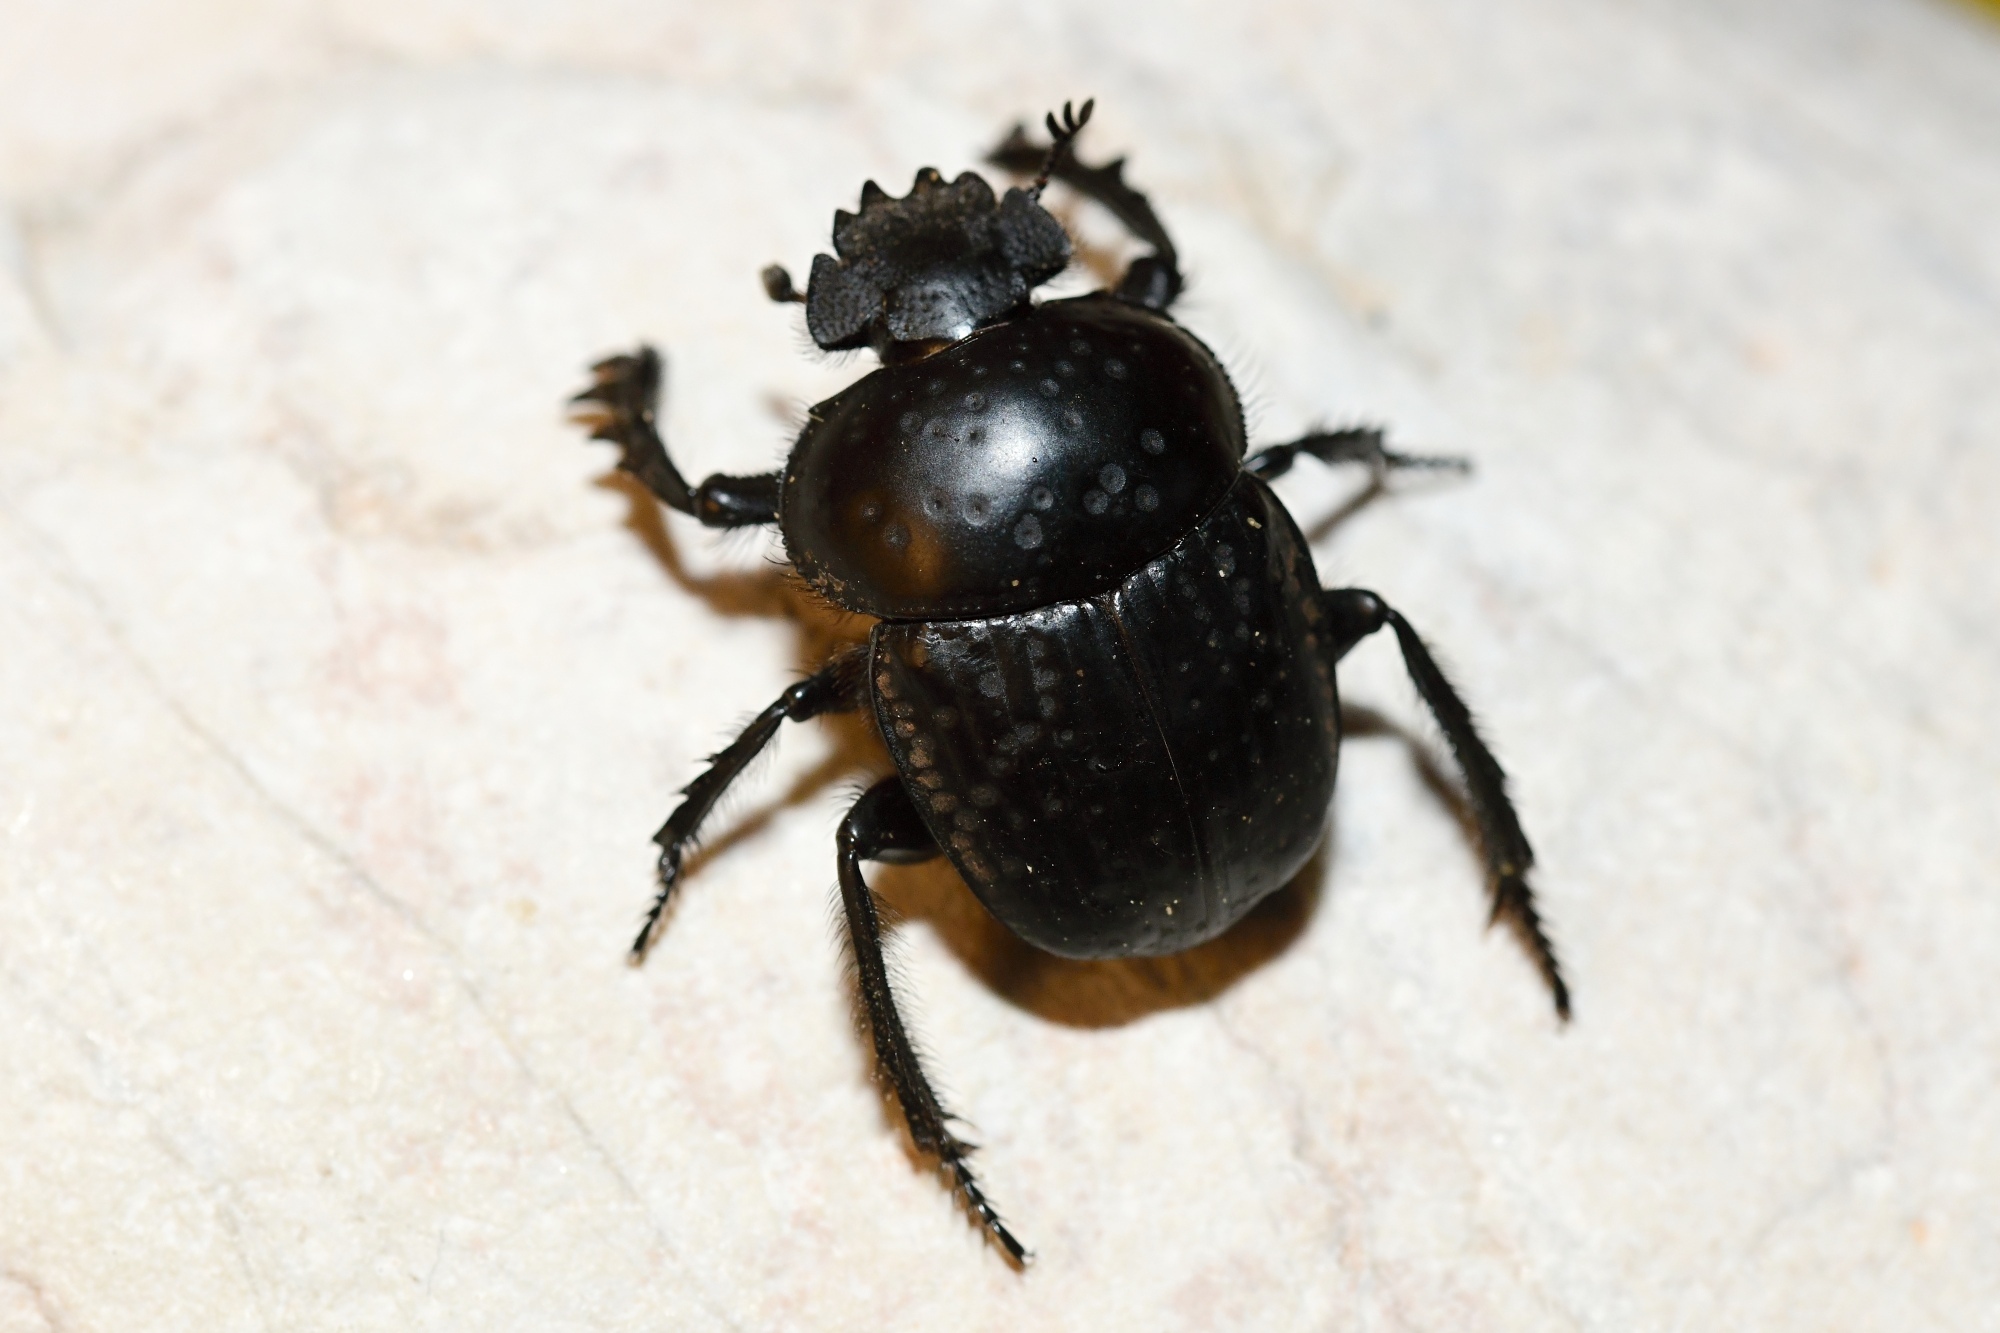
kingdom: Animalia
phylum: Arthropoda
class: Insecta
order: Coleoptera
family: Scarabaeidae
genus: Ateuchetus
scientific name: Ateuchetus
